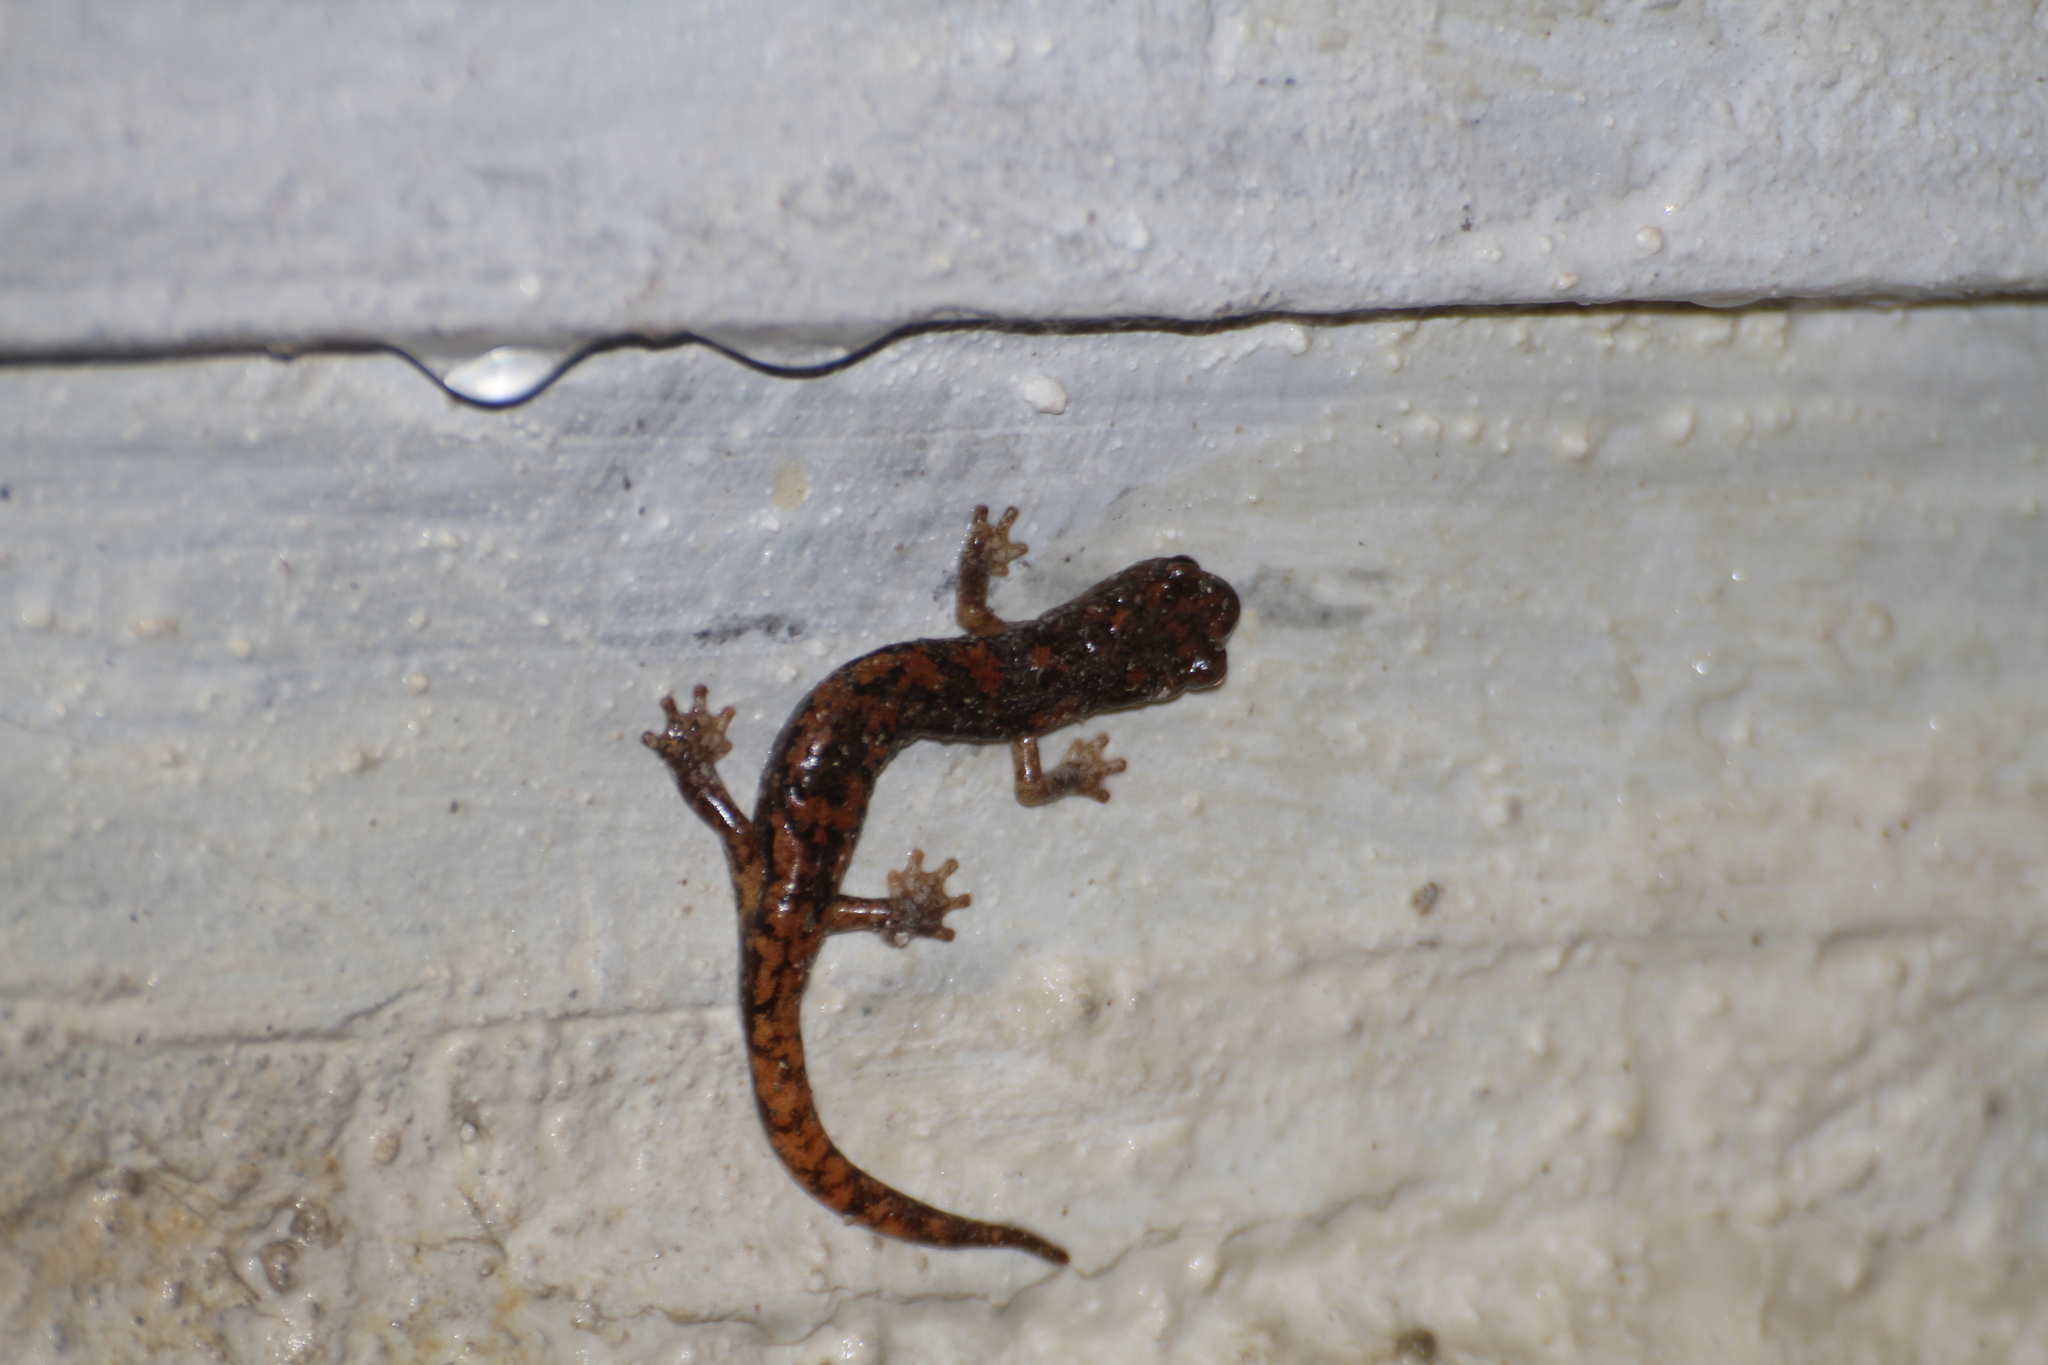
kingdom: Animalia
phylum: Chordata
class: Amphibia
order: Caudata
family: Plethodontidae
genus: Speleomantes
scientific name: Speleomantes strinatii
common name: French cave salamander
